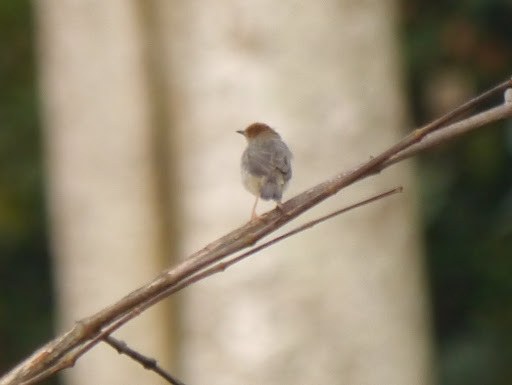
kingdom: Animalia
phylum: Chordata
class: Aves
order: Passeriformes
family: Cisticolidae
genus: Cisticola
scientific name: Cisticola anonymus
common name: Chattering cisticola
